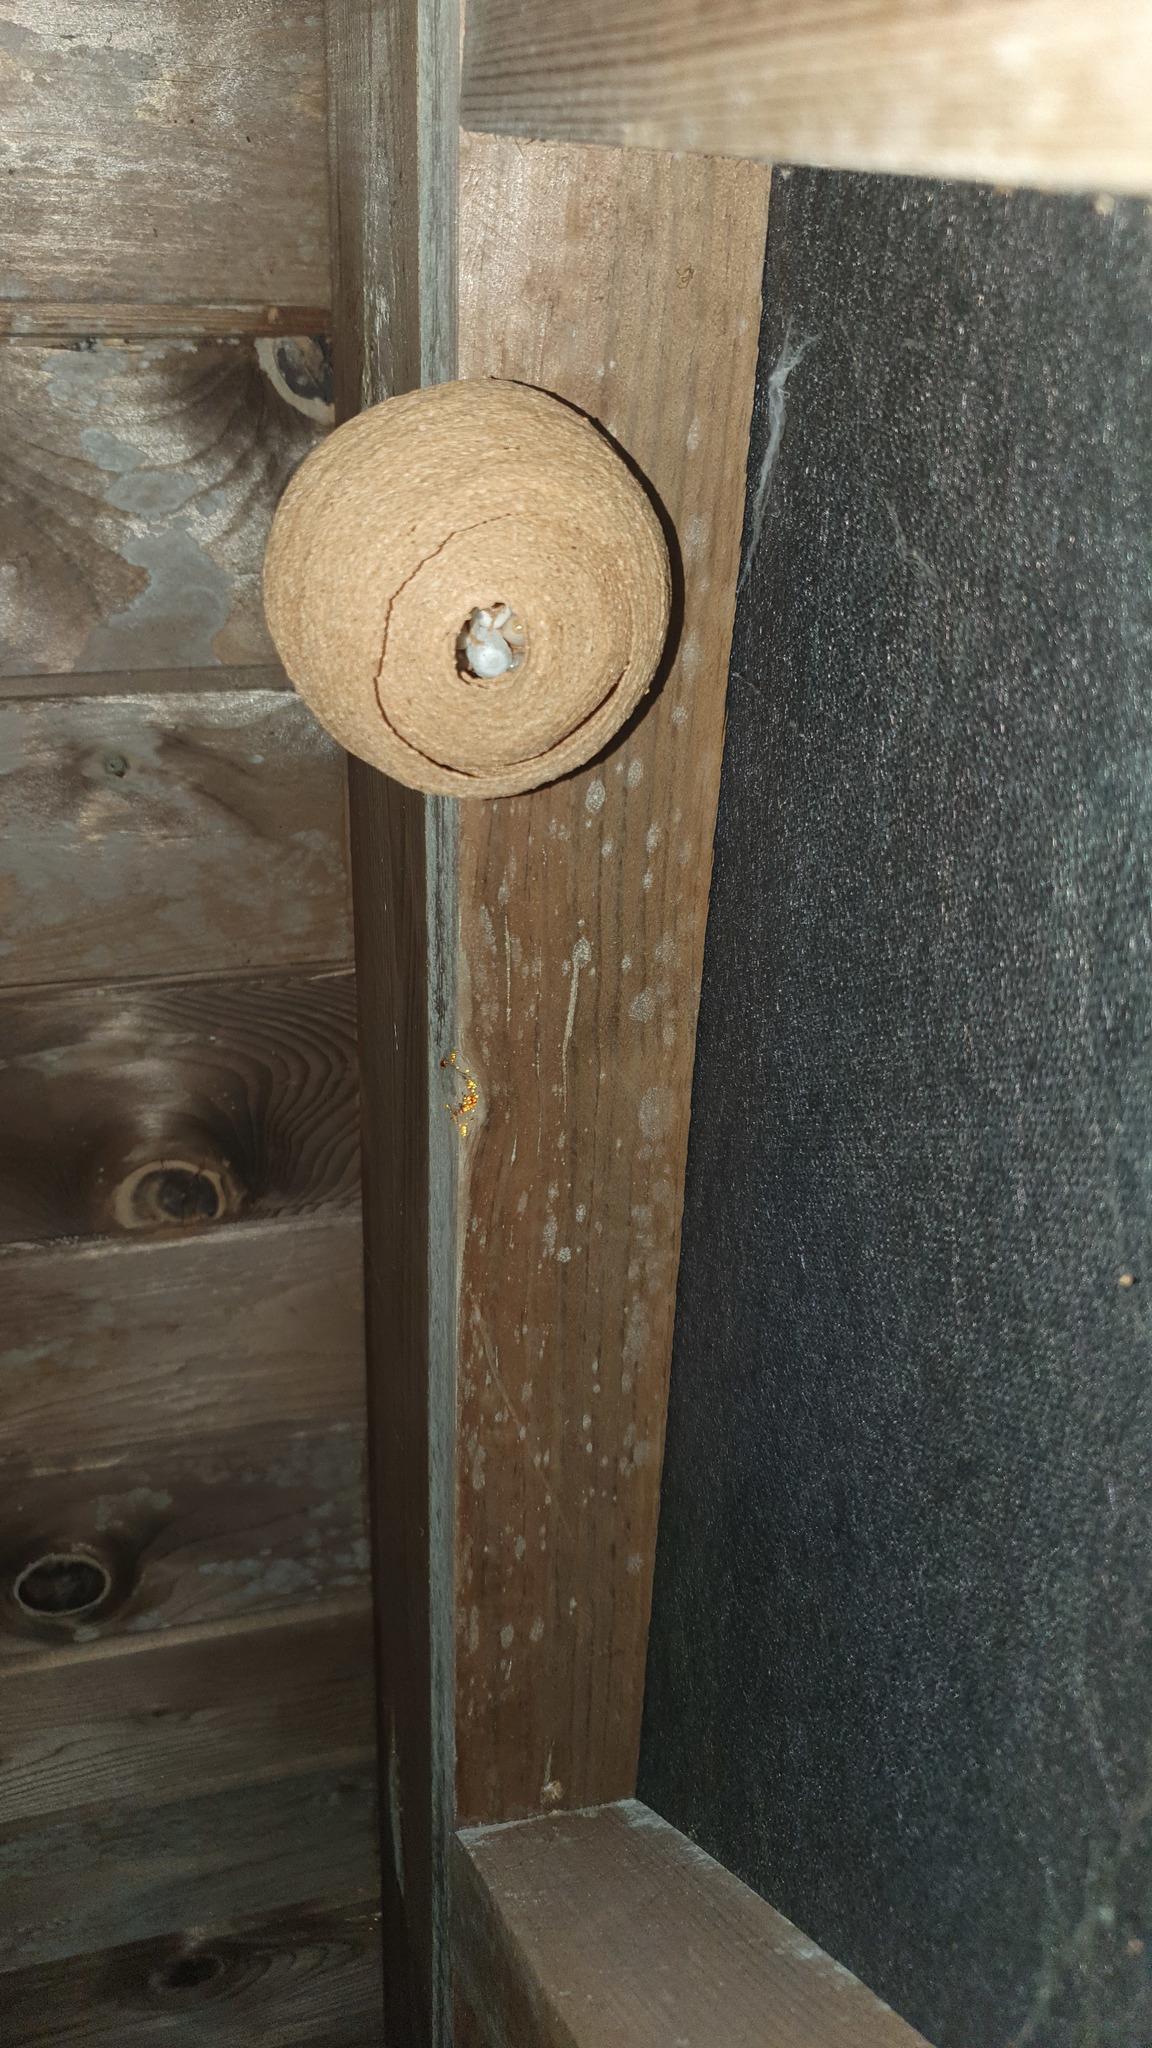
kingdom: Animalia
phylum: Arthropoda
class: Insecta
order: Hymenoptera
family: Vespidae
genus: Vespa
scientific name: Vespa velutina
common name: Asian hornet
